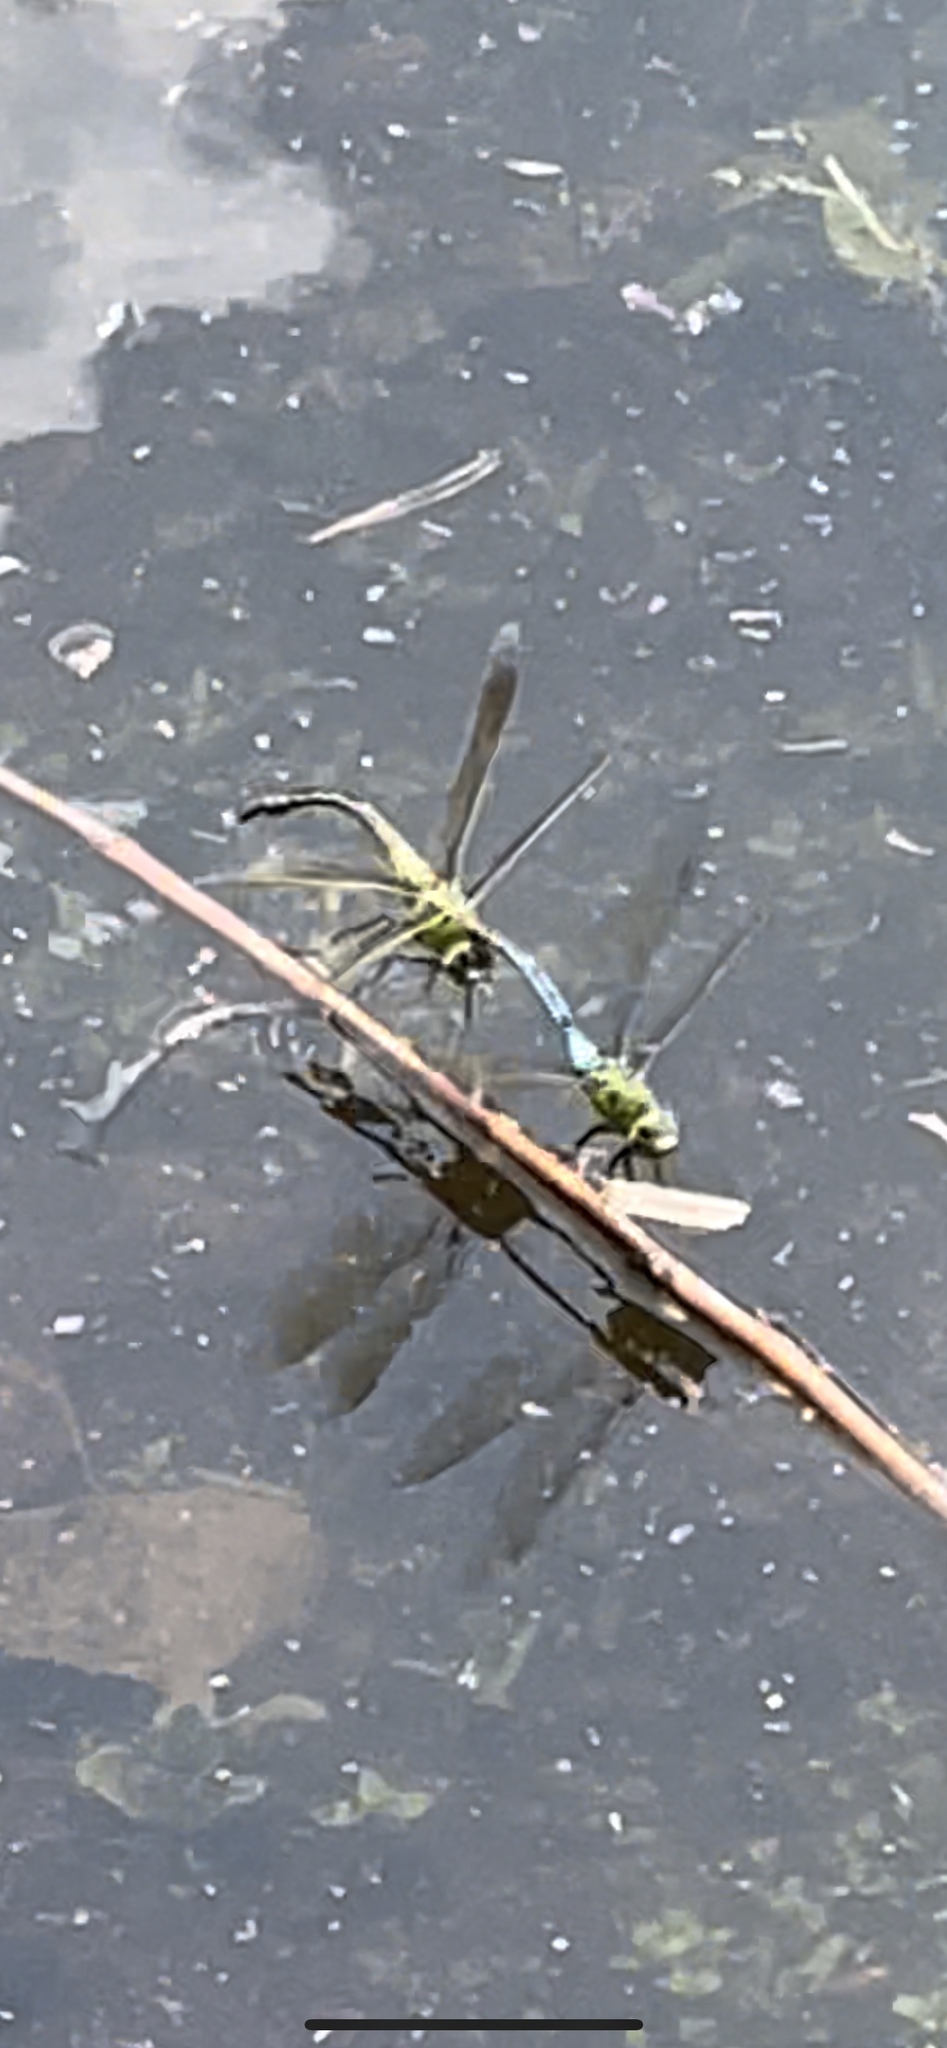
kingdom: Animalia
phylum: Arthropoda
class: Insecta
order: Odonata
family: Aeshnidae
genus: Anax
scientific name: Anax junius
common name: Common green darner
